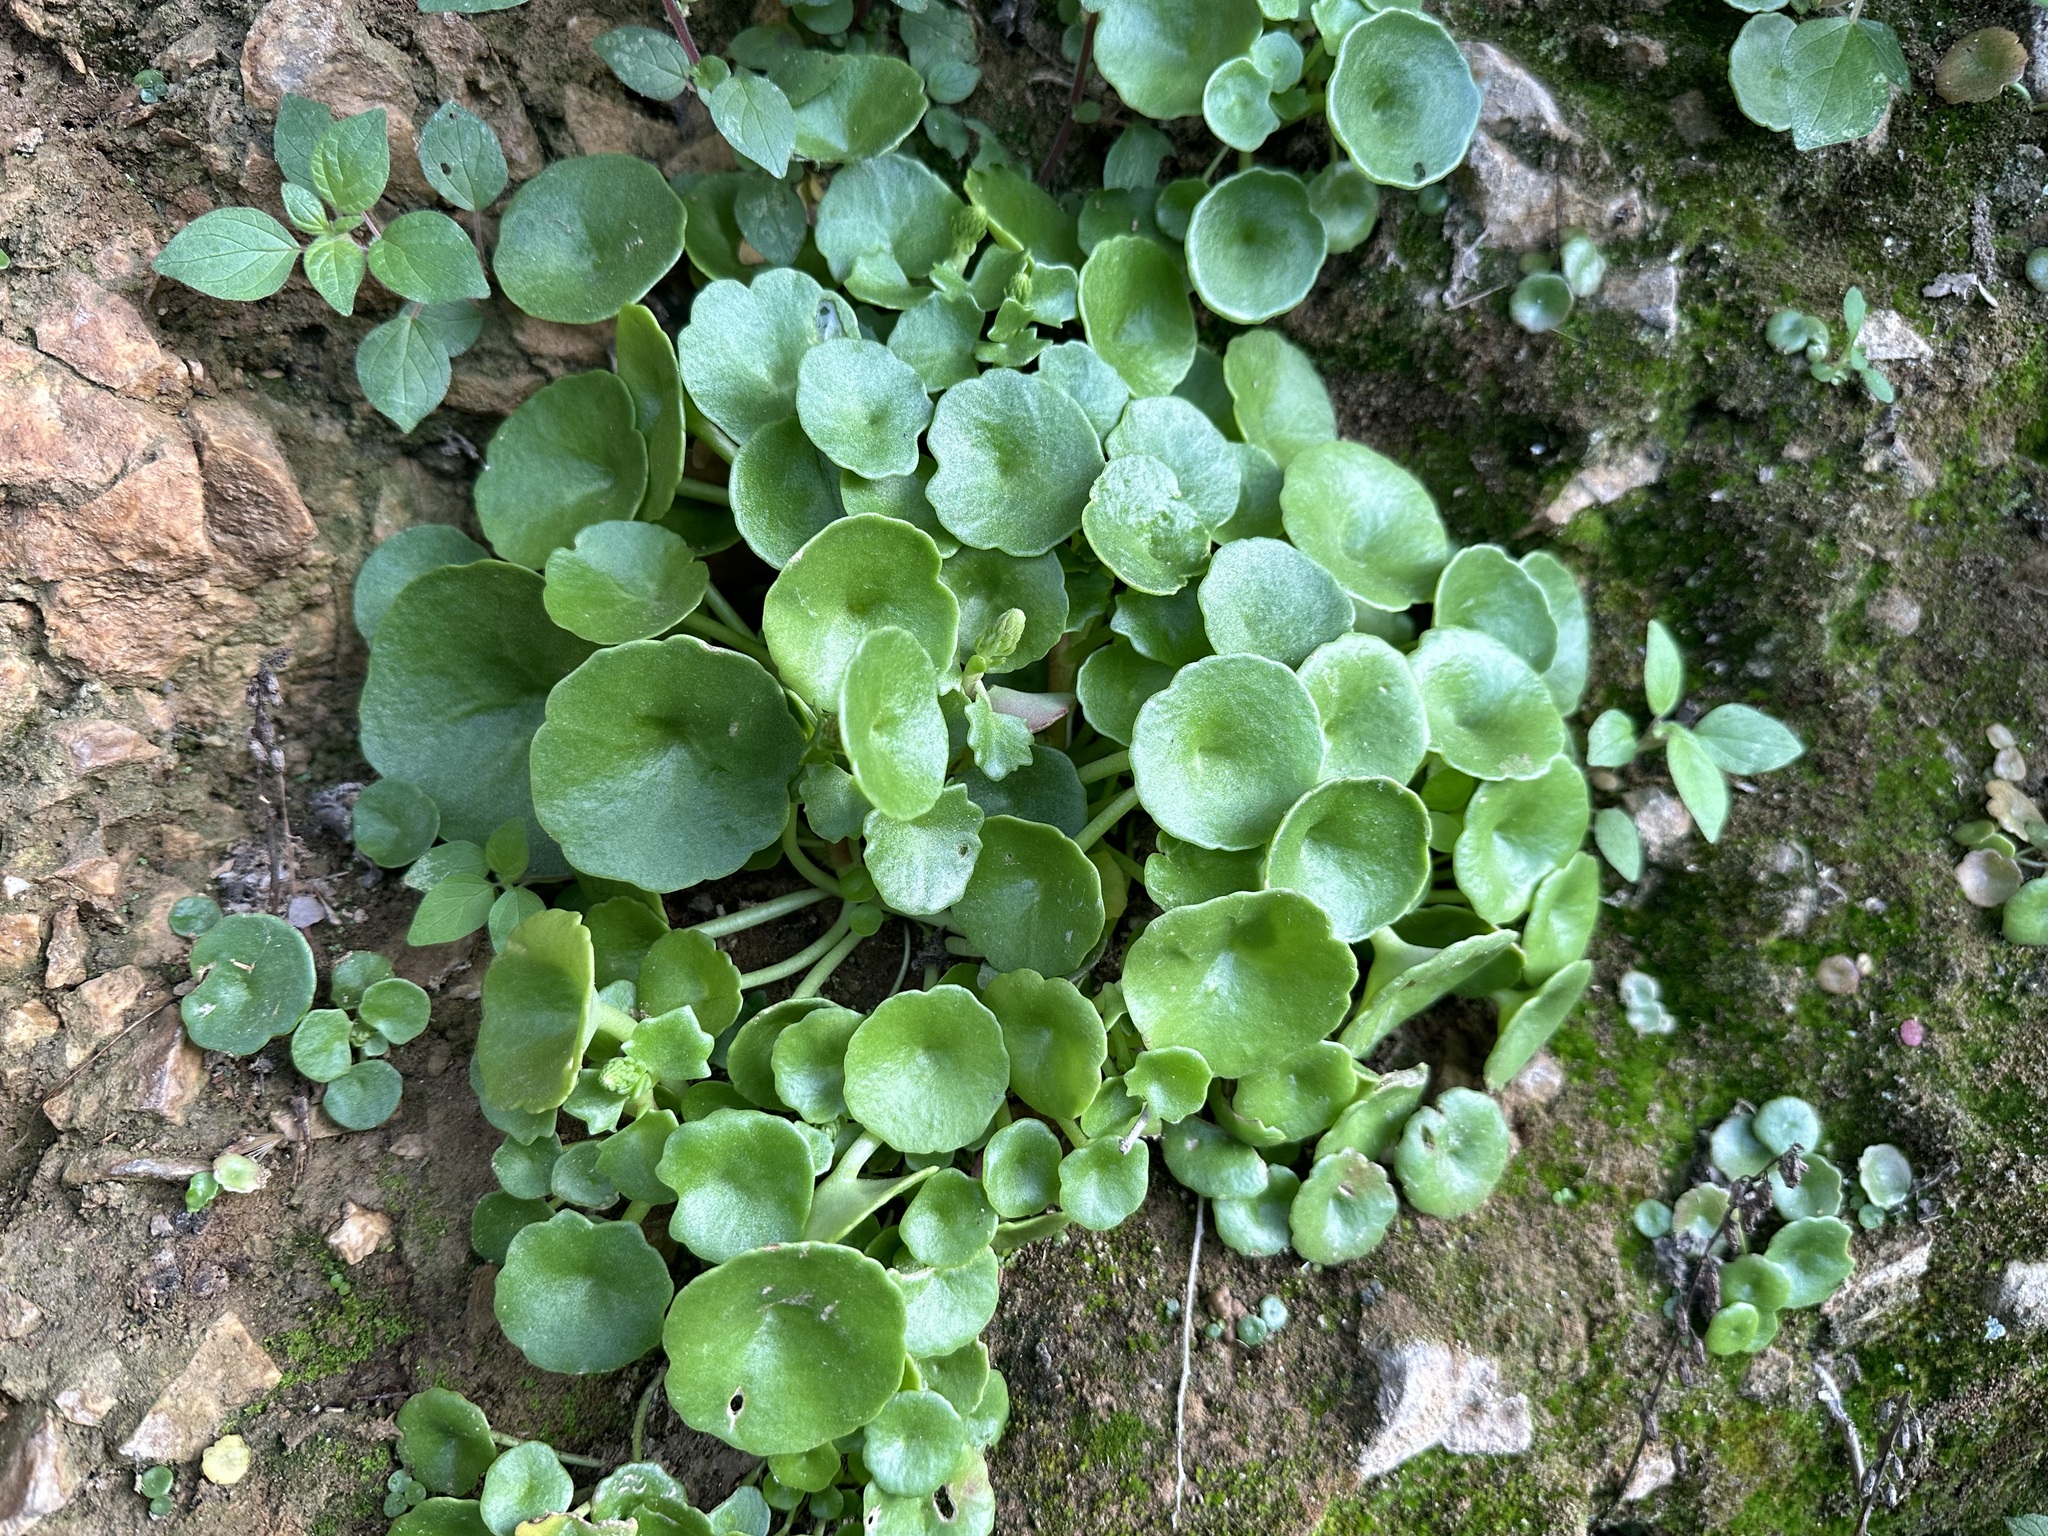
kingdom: Plantae
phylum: Tracheophyta
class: Magnoliopsida
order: Saxifragales
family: Crassulaceae
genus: Umbilicus
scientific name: Umbilicus rupestris
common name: Navelwort
